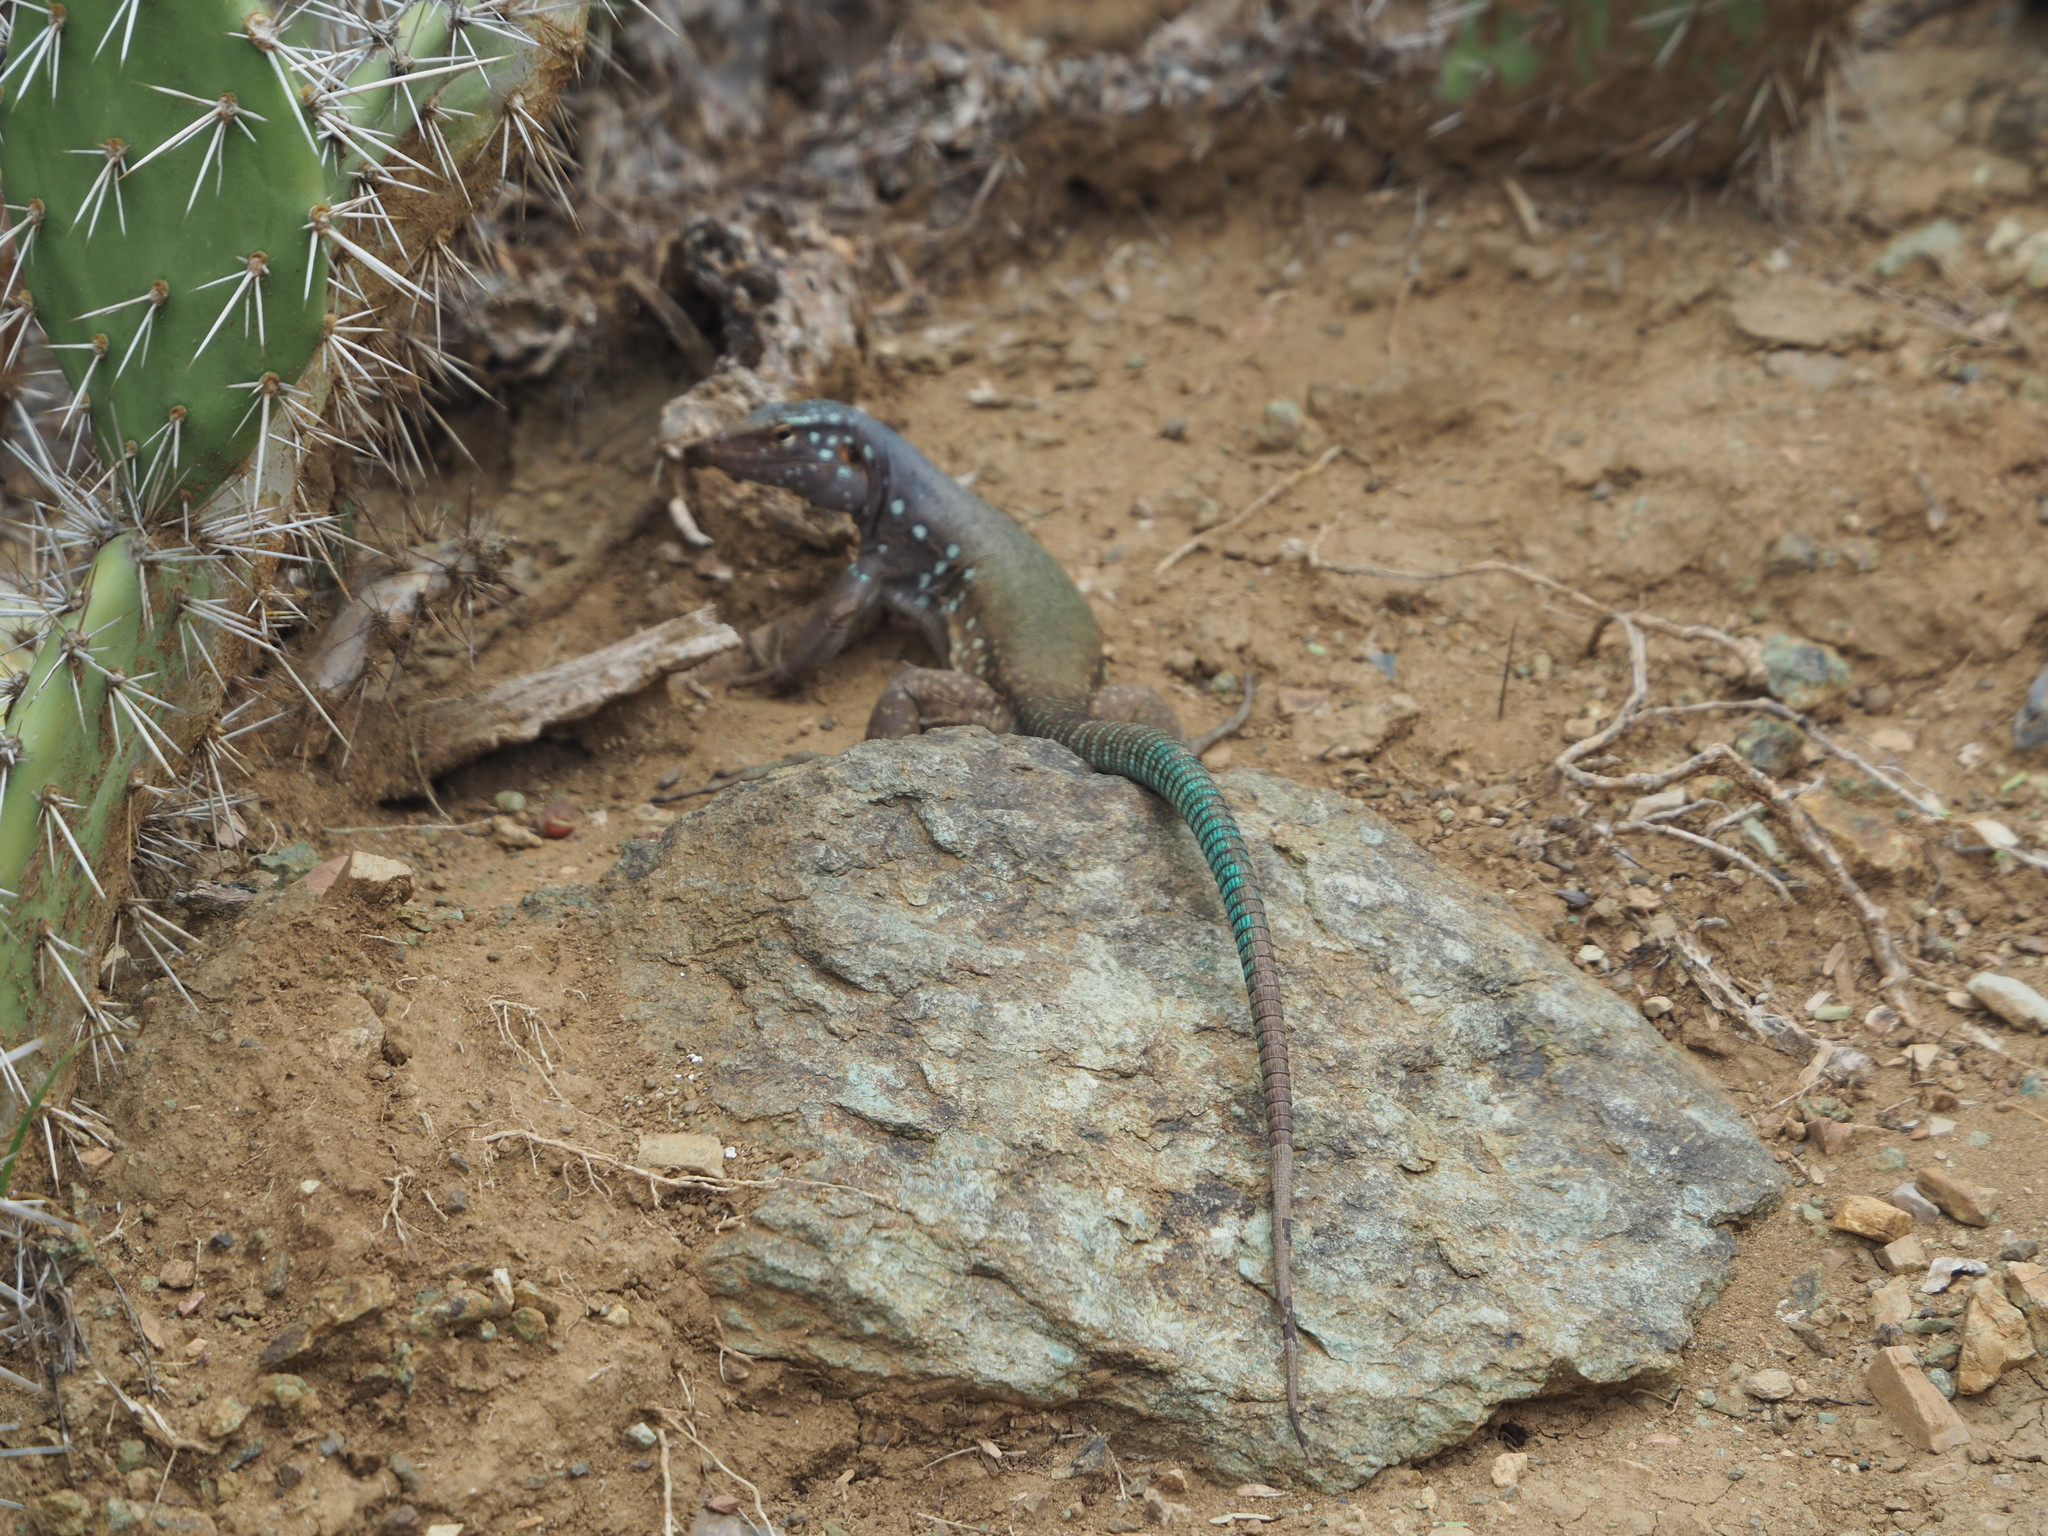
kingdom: Animalia
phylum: Chordata
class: Squamata
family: Teiidae
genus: Cnemidophorus
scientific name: Cnemidophorus ruthveni
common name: Bonaire whiptail
